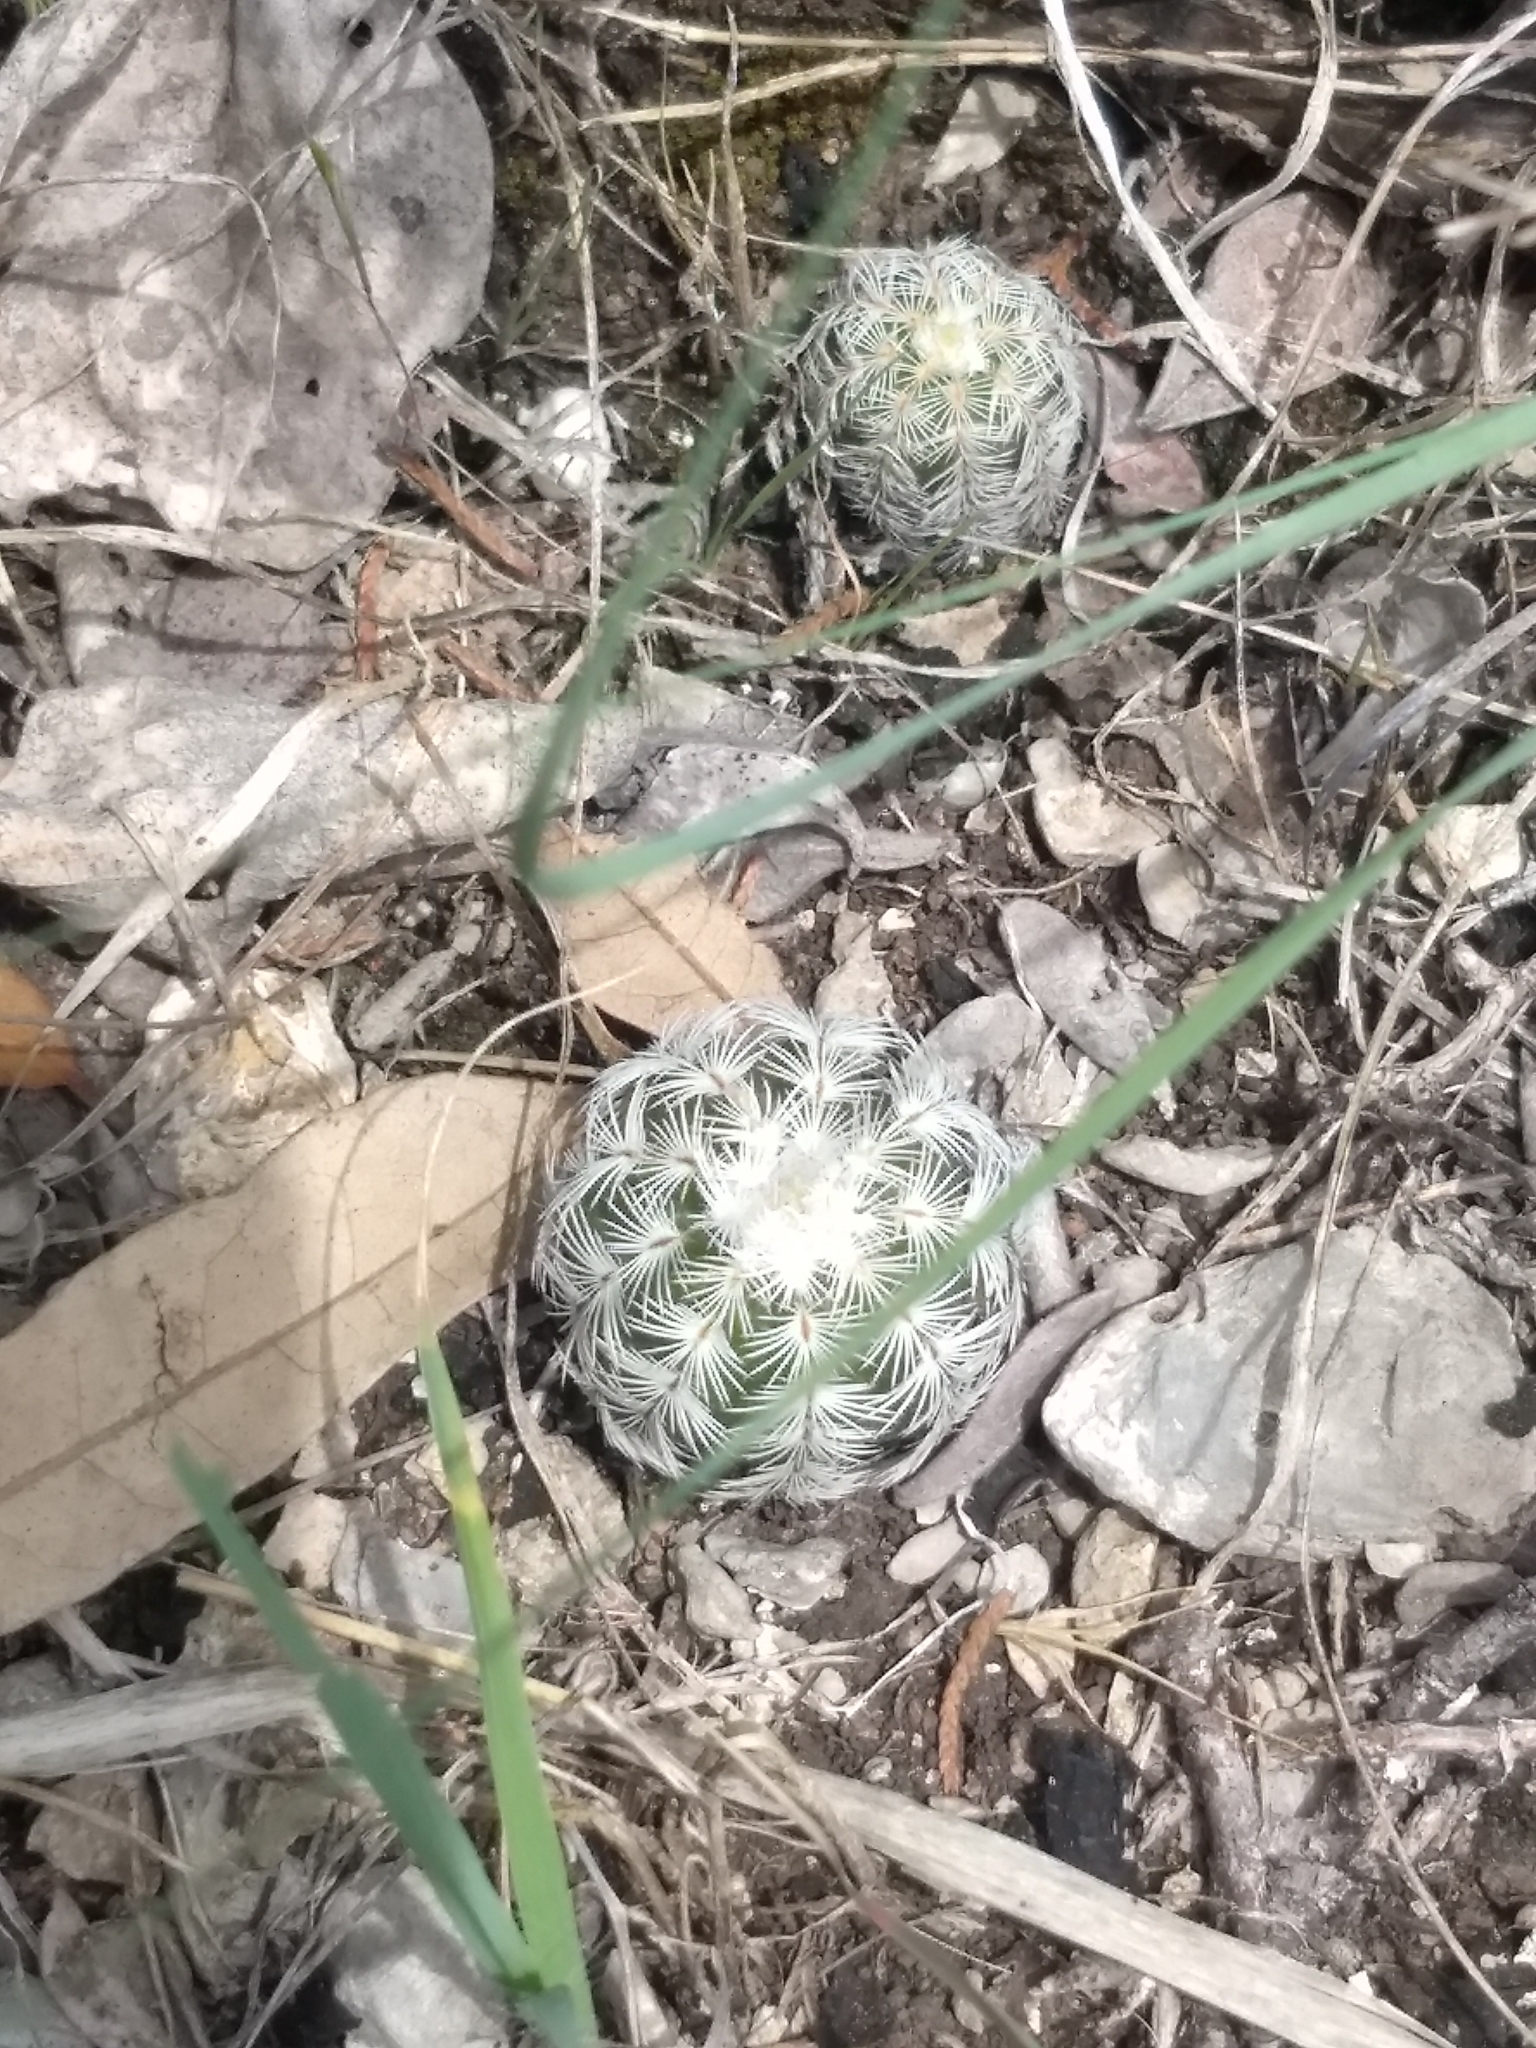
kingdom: Plantae
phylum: Tracheophyta
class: Magnoliopsida
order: Caryophyllales
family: Cactaceae
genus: Echinocereus
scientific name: Echinocereus reichenbachii
